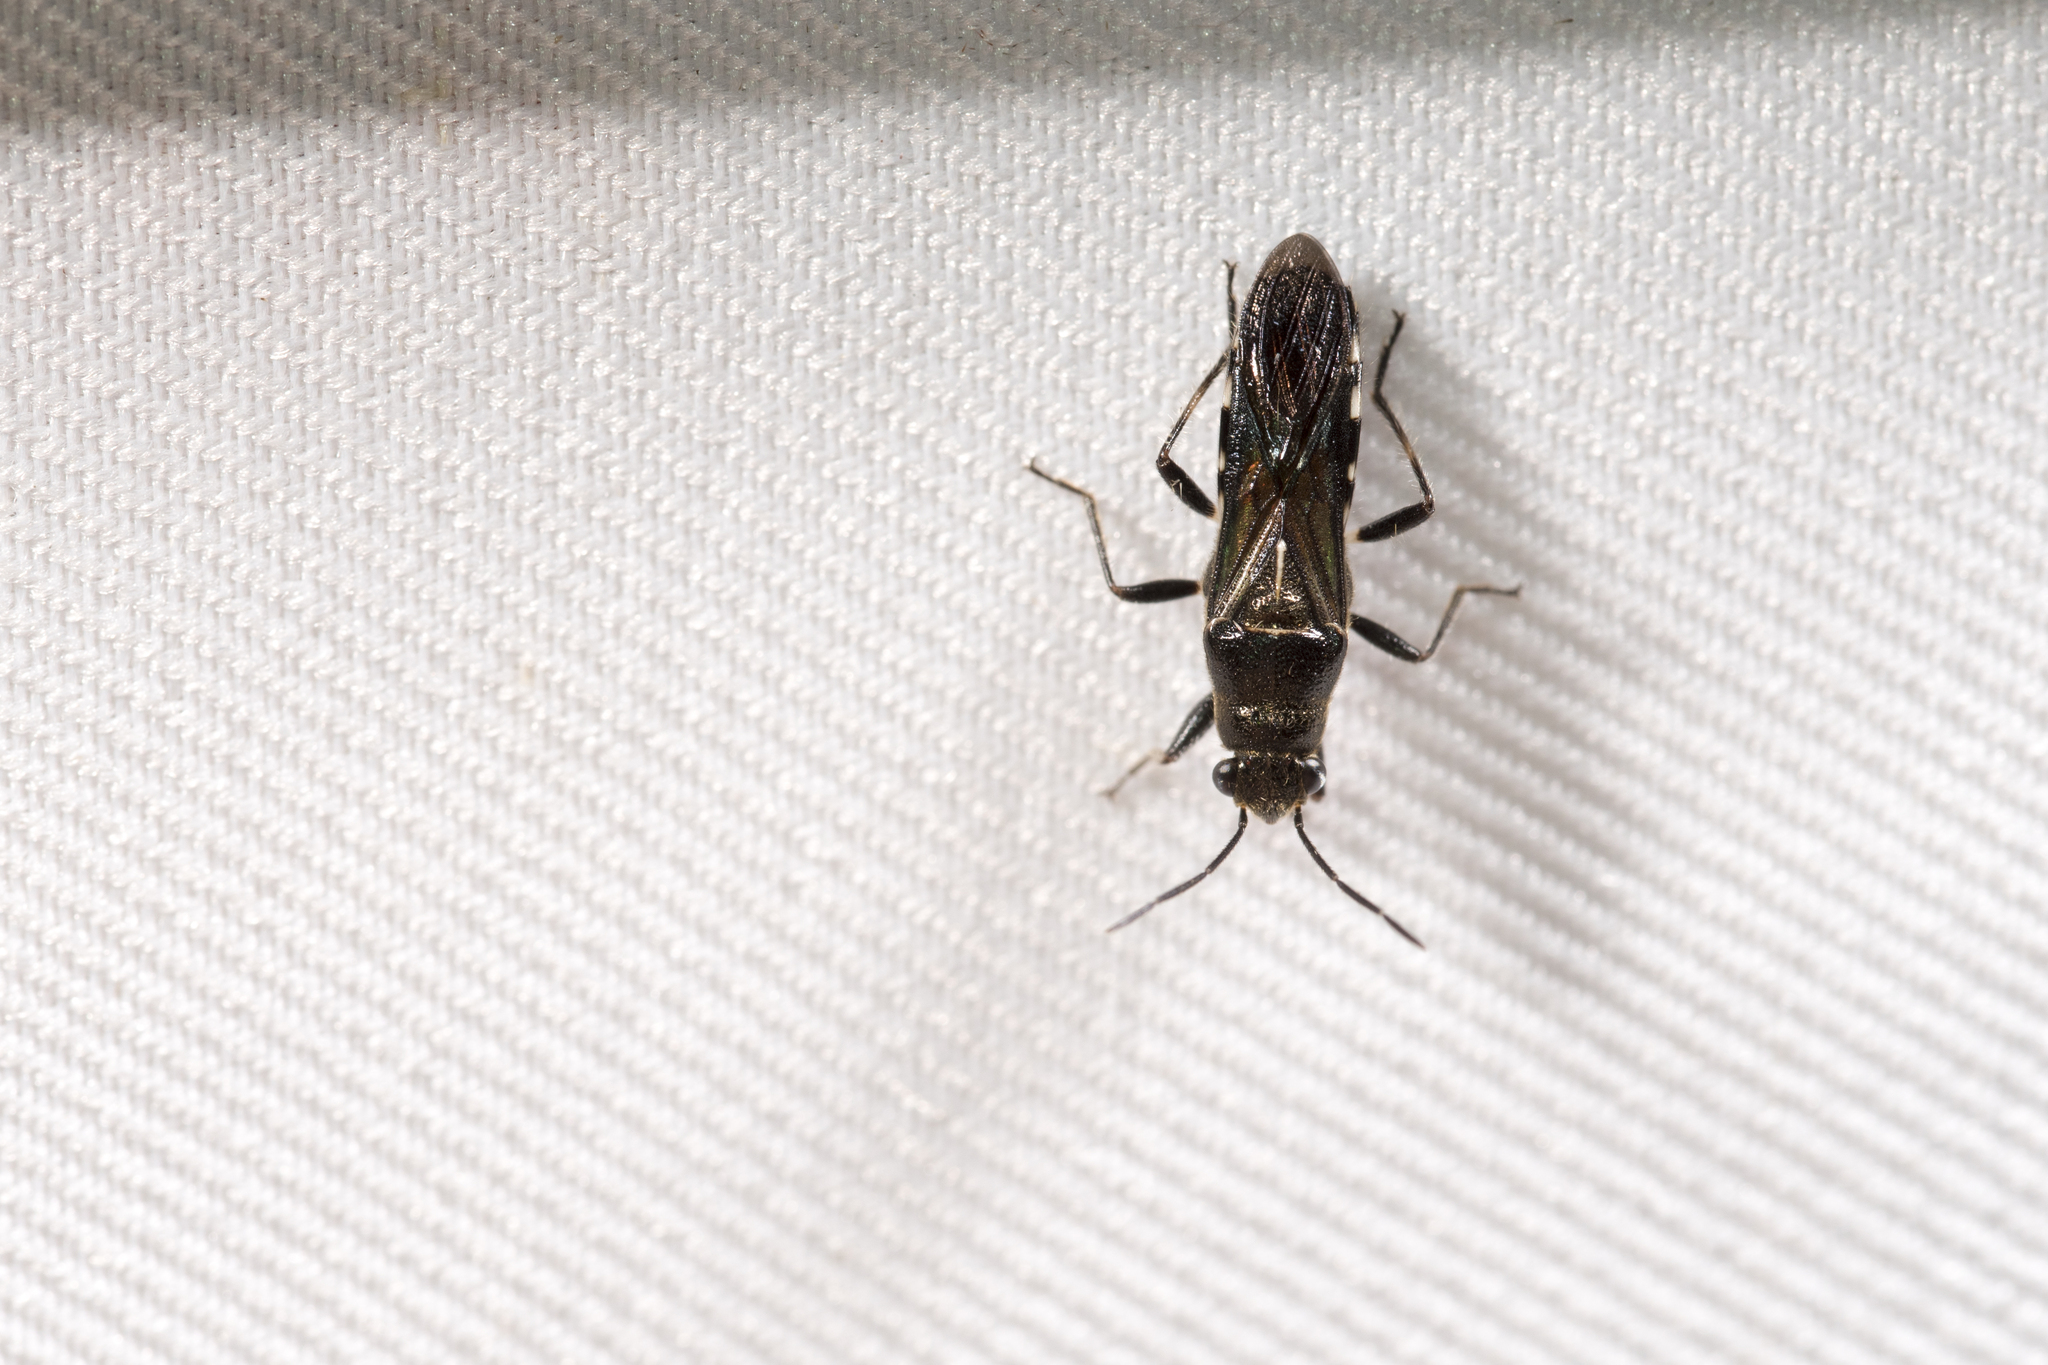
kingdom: Animalia
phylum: Arthropoda
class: Insecta
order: Hemiptera
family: Heterogastridae
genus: Nerthus
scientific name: Nerthus taivanicus
